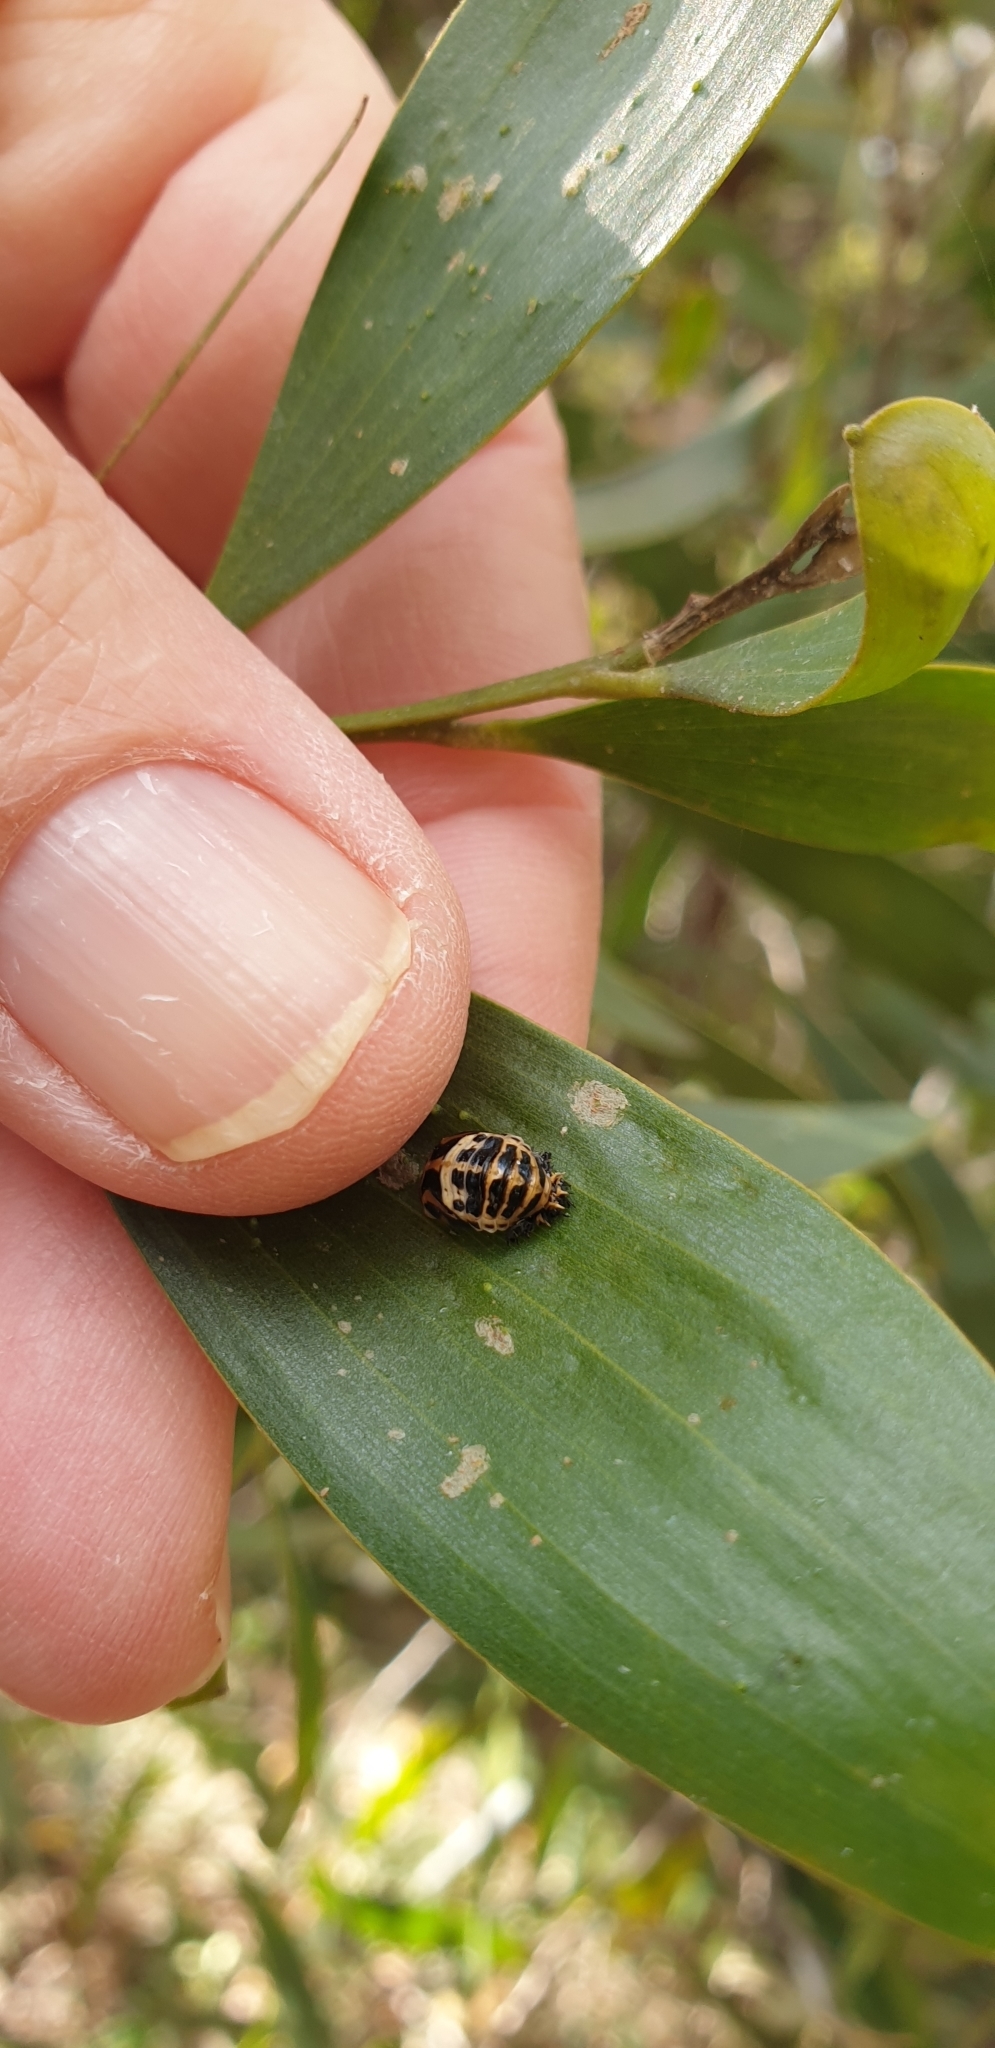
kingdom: Animalia
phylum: Arthropoda
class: Insecta
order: Coleoptera
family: Coccinellidae
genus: Harmonia
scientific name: Harmonia conformis
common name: Common spotted ladybird beetle
